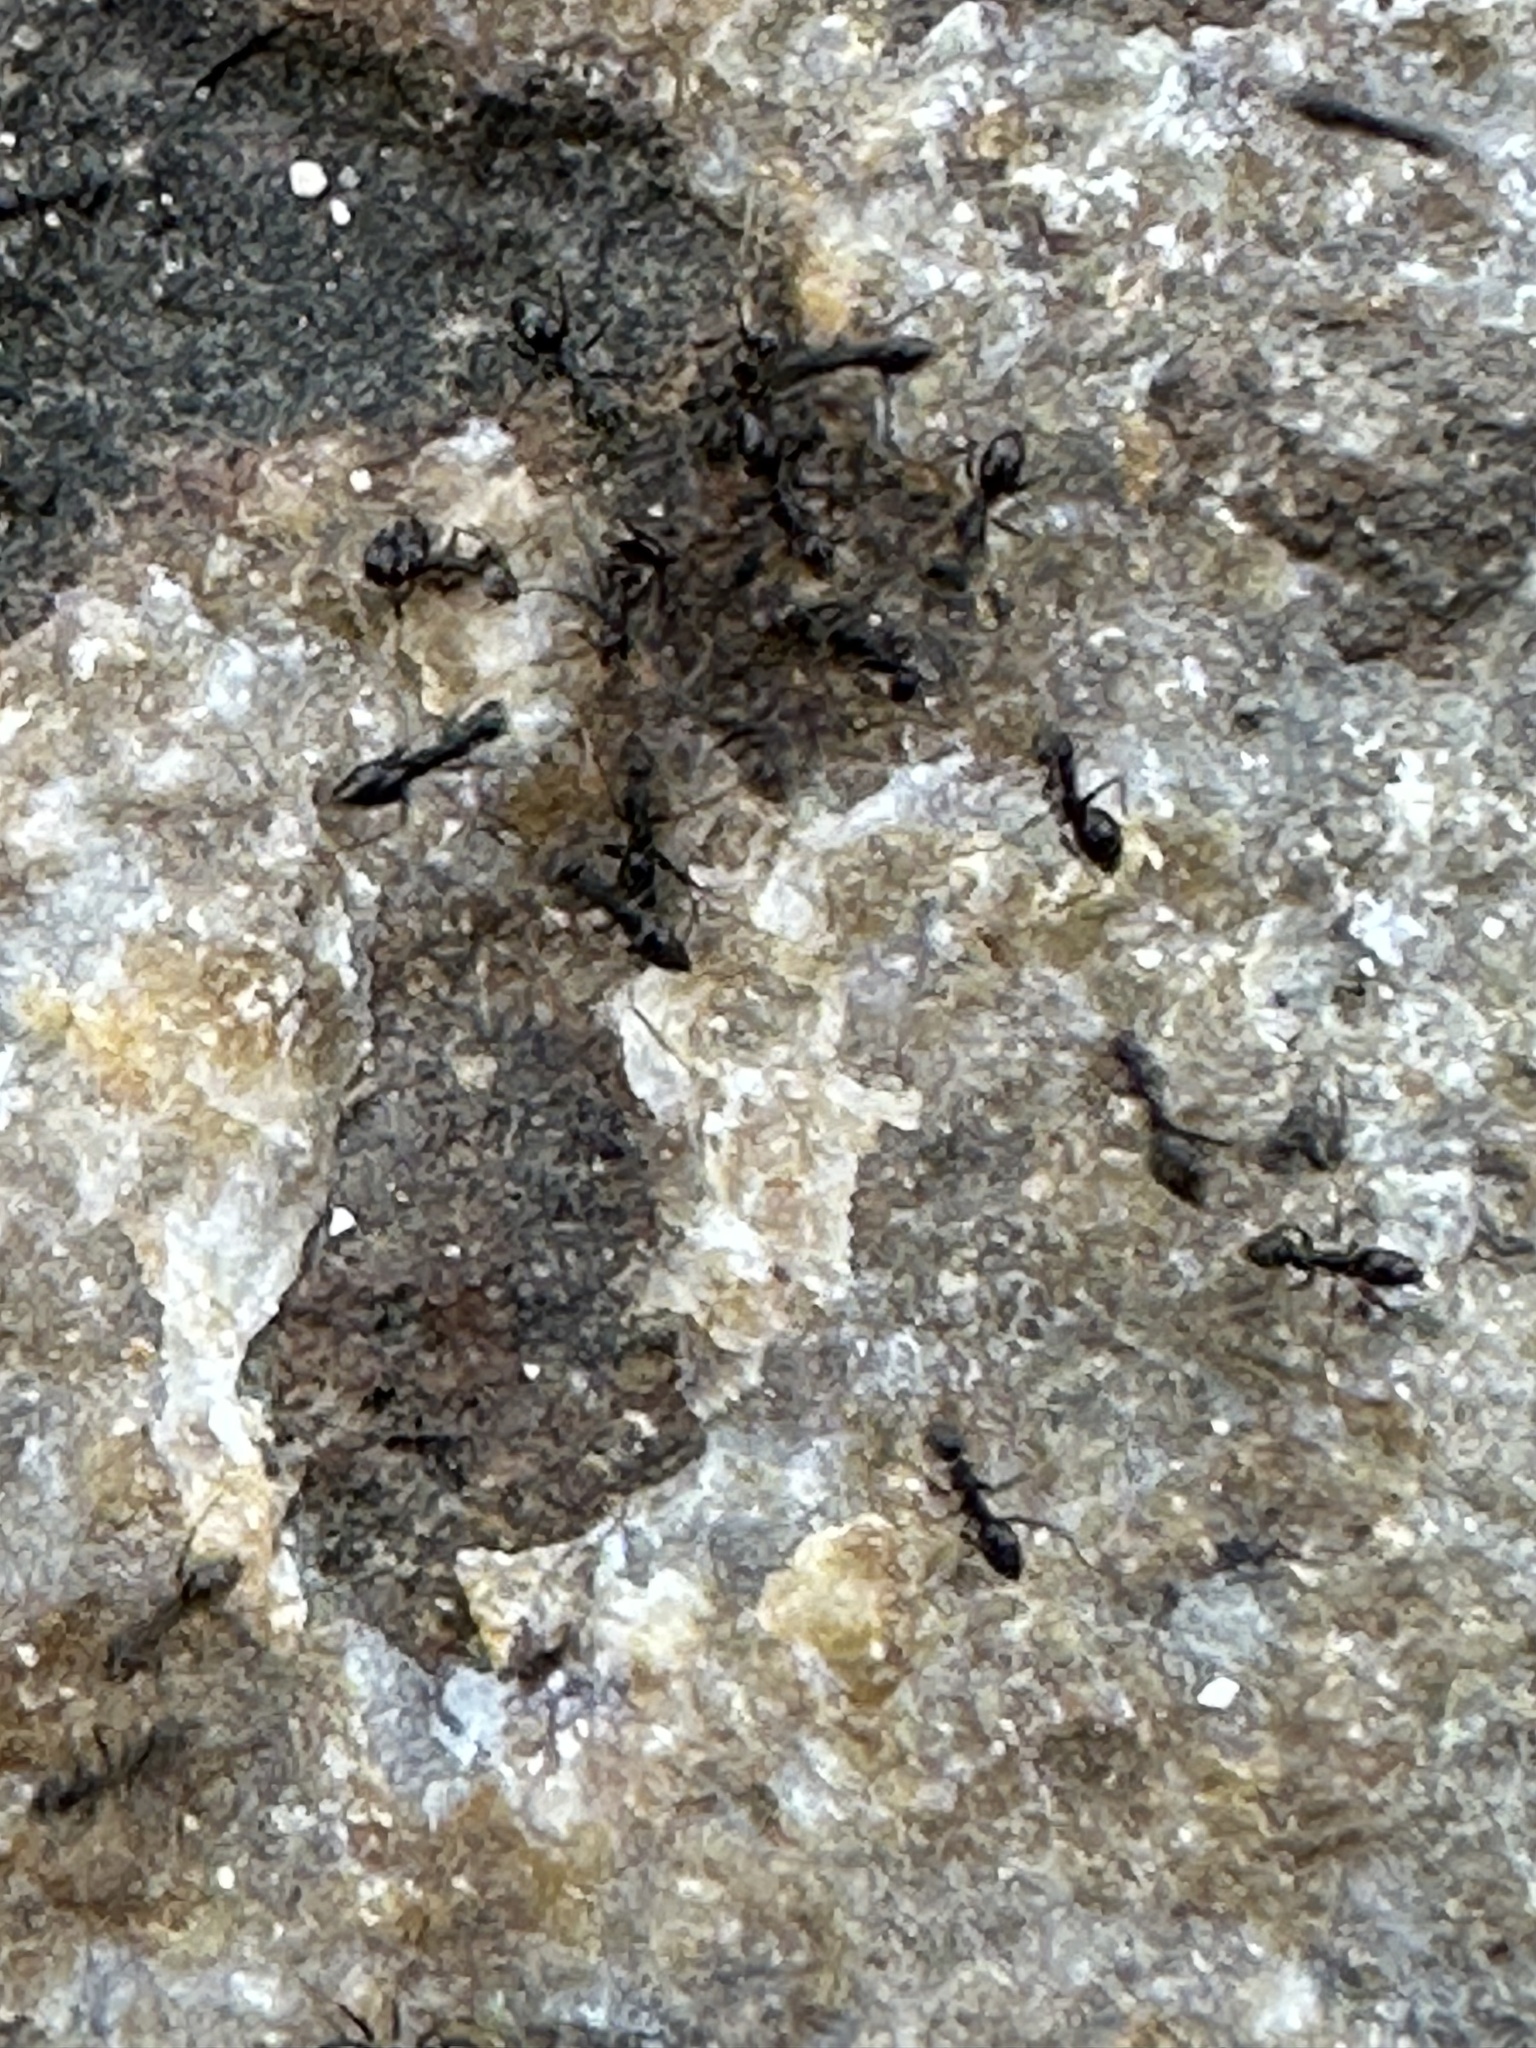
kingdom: Animalia
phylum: Arthropoda
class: Insecta
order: Hymenoptera
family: Formicidae
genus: Paratrechina
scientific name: Paratrechina longicornis
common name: Longhorned crazy ant
